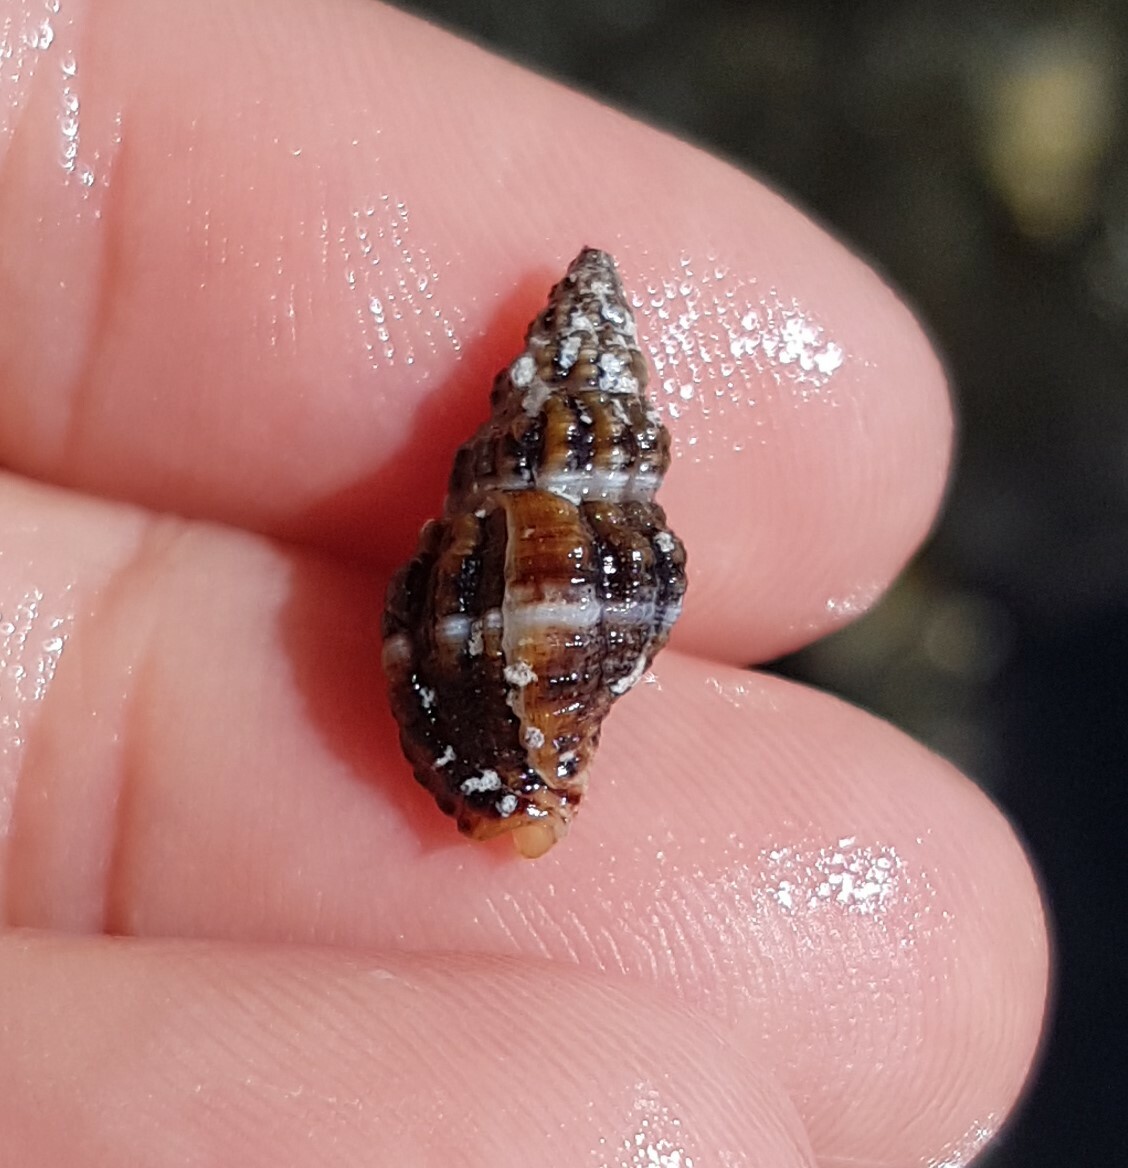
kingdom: Animalia
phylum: Mollusca
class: Gastropoda
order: Neogastropoda
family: Pisaniidae
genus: Aplus
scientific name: Aplus dorbignyi
